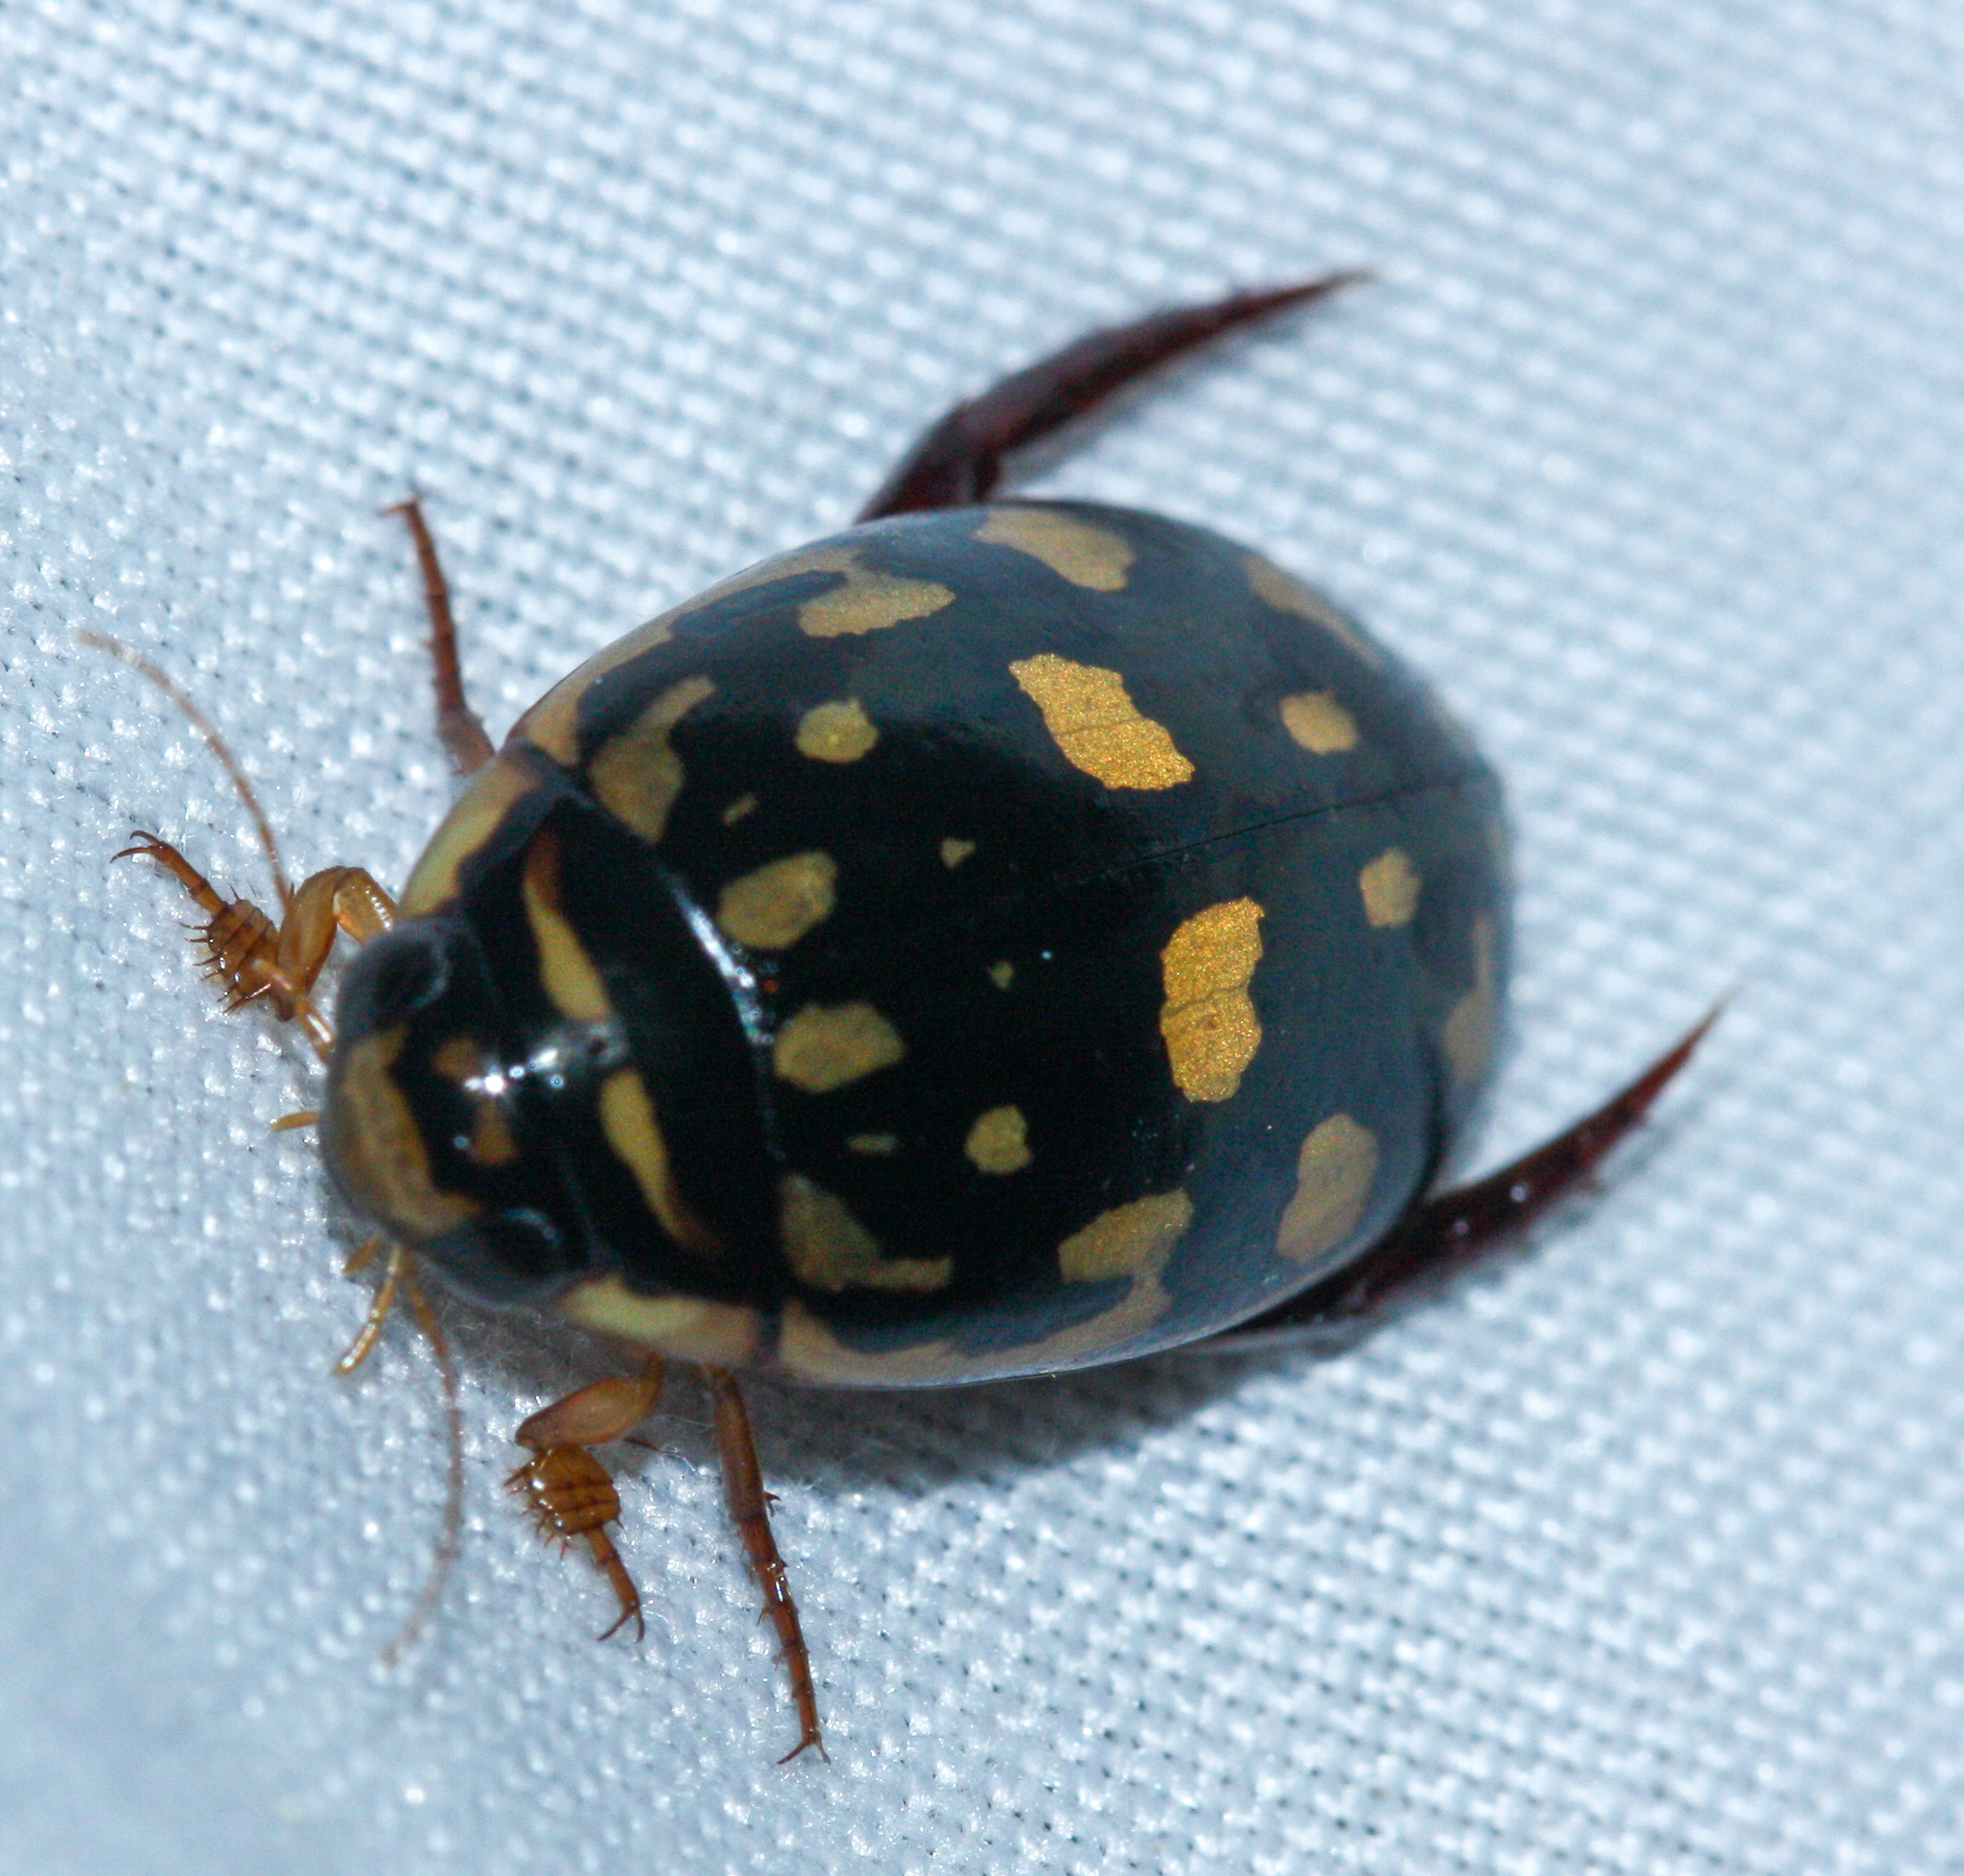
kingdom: Animalia
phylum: Arthropoda
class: Insecta
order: Coleoptera
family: Dytiscidae
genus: Thermonectus
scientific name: Thermonectus marmoratus
